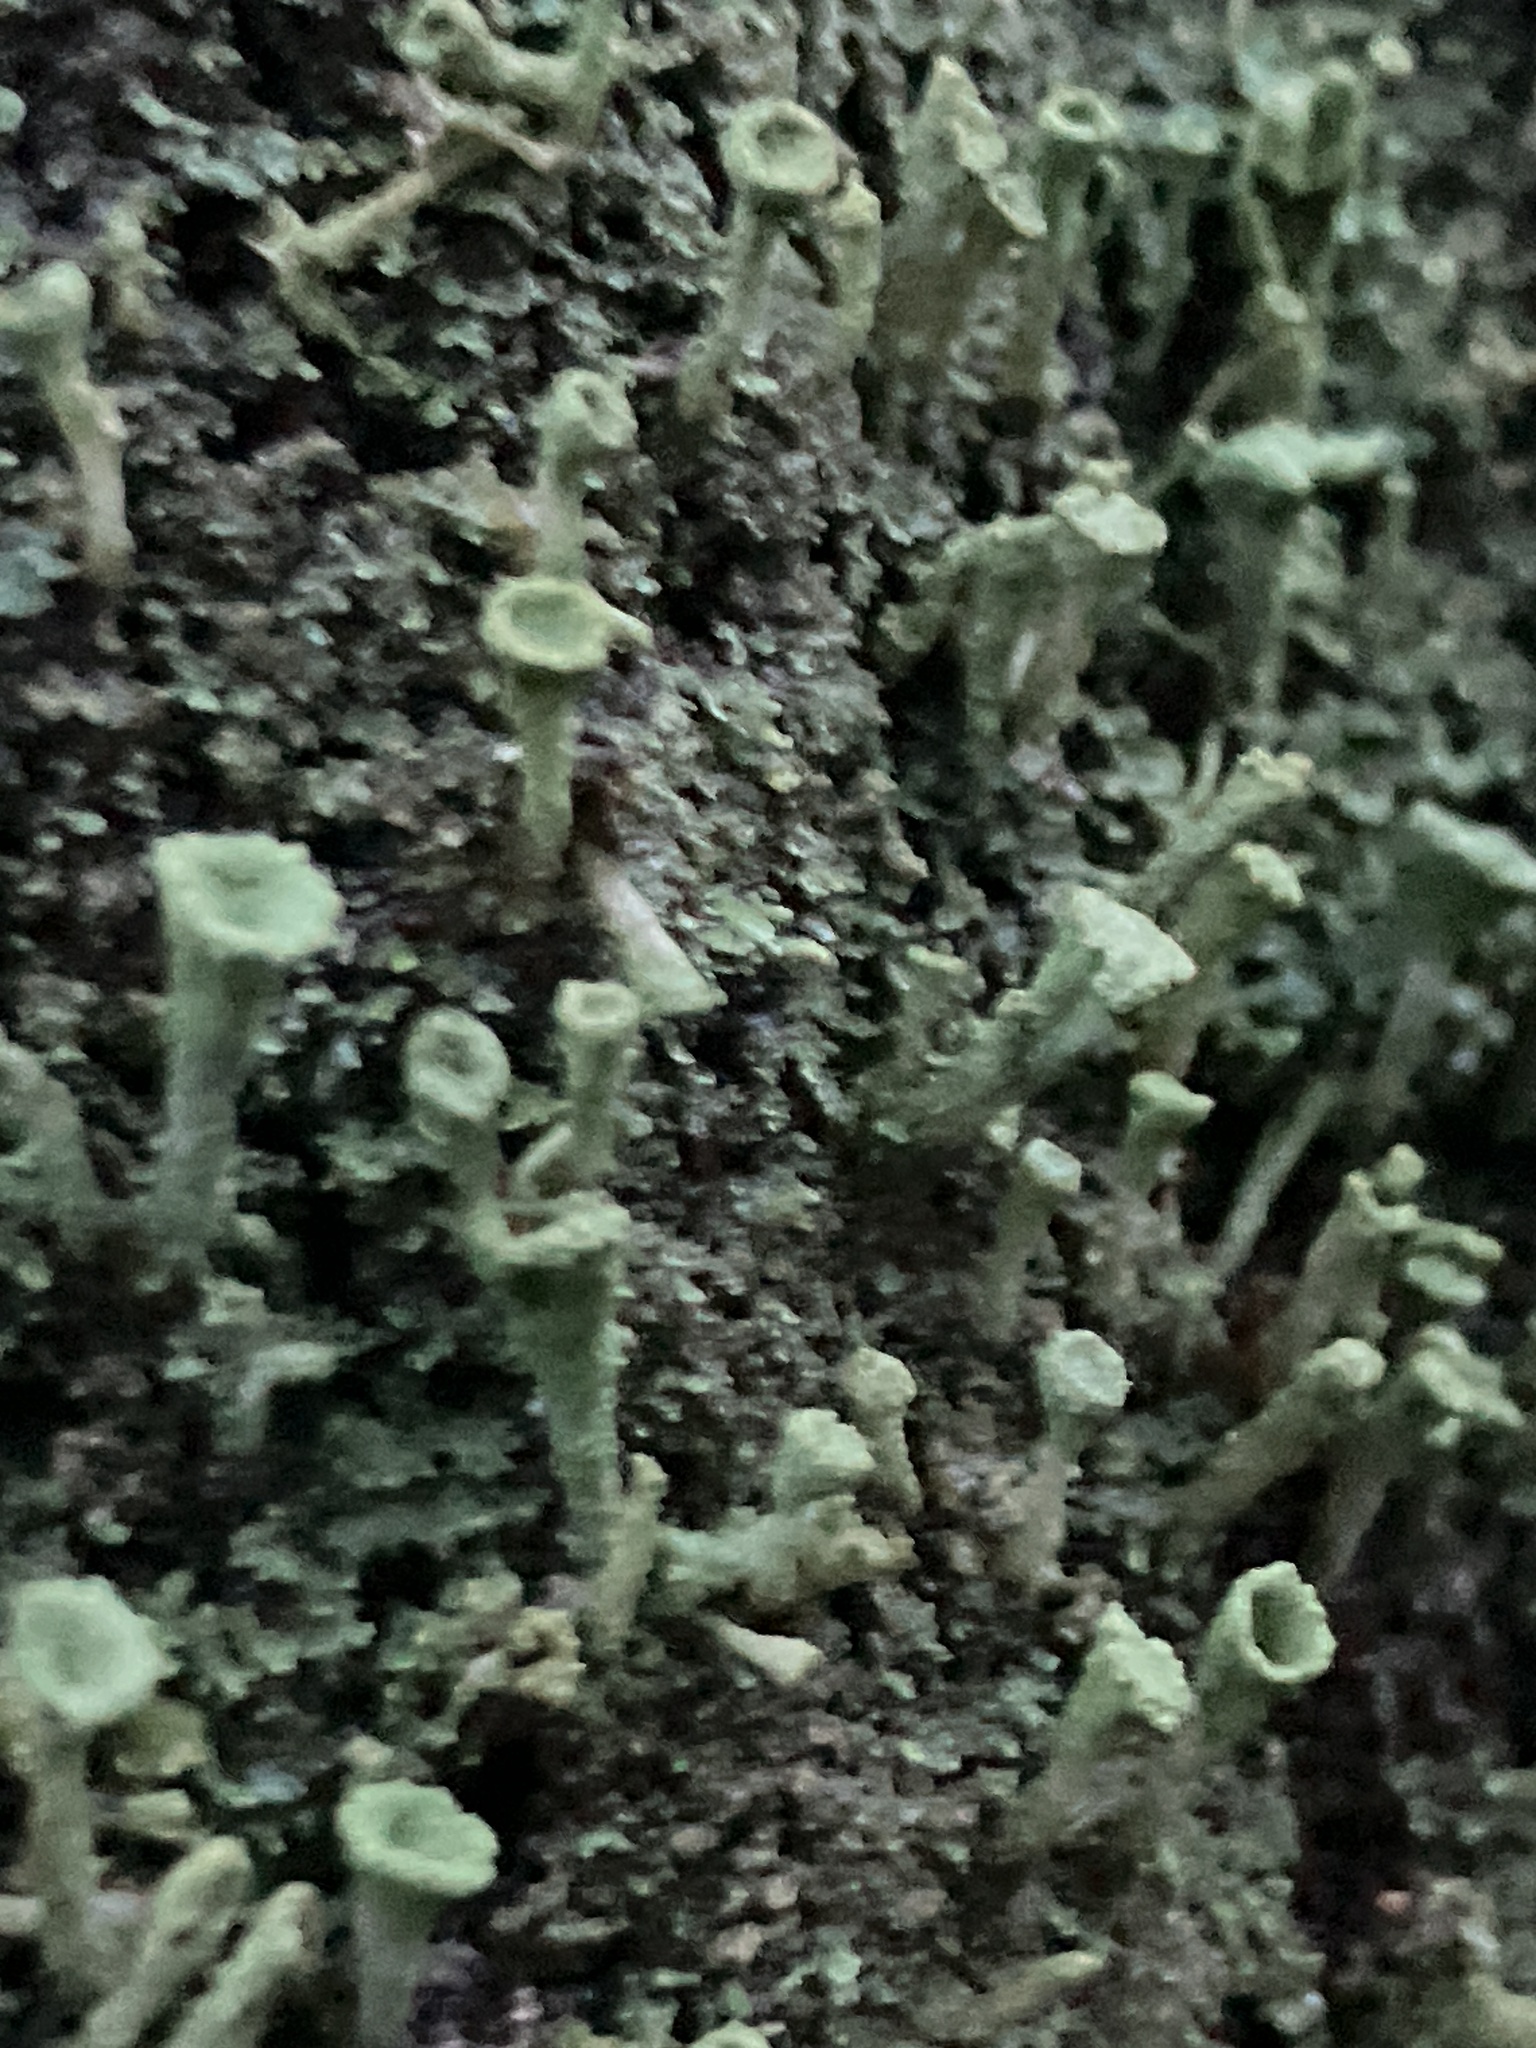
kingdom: Fungi
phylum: Ascomycota
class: Lecanoromycetes
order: Lecanorales
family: Cladoniaceae
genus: Cladonia
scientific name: Cladonia fimbriata
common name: Powdered trumpet lichen
